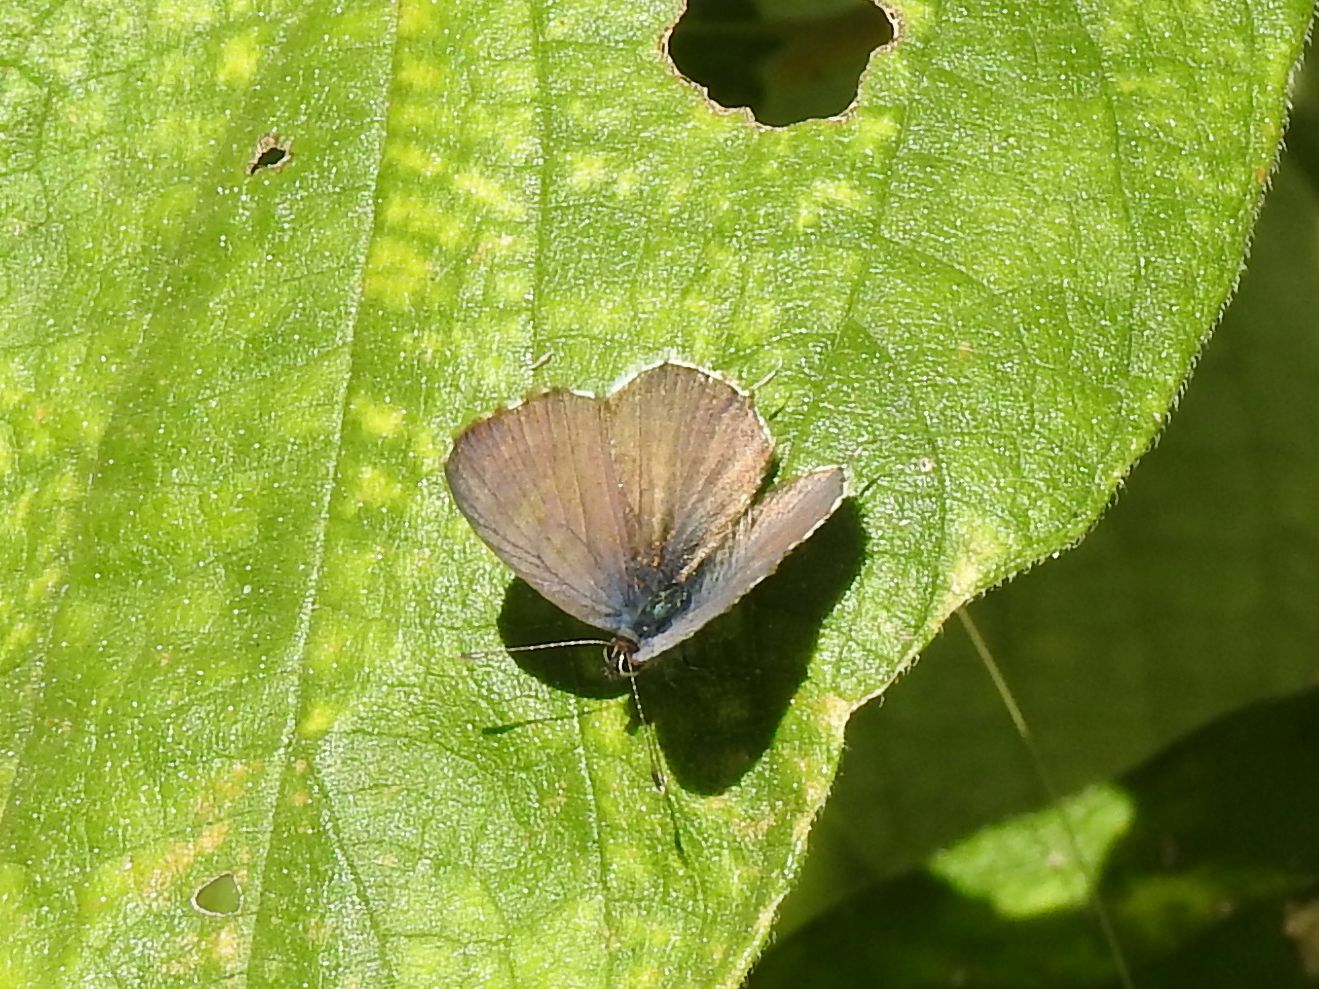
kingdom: Animalia
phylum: Arthropoda
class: Insecta
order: Lepidoptera
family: Lycaenidae
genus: Cacyreus
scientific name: Cacyreus lingeus
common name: Bush bronze
